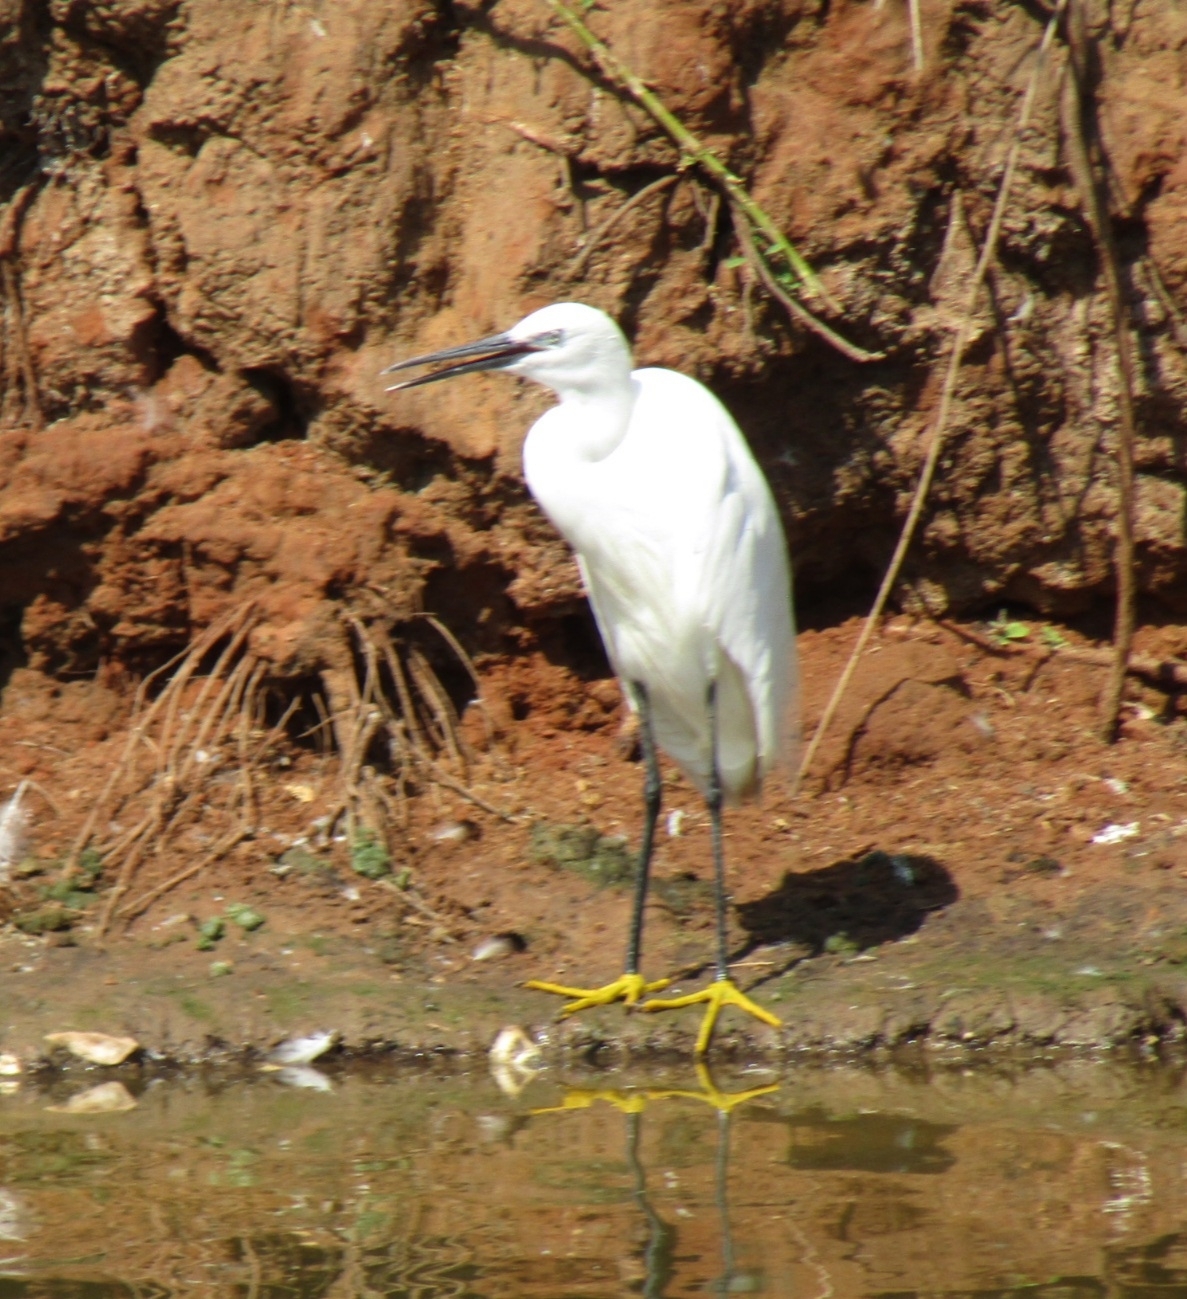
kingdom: Animalia
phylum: Chordata
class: Aves
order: Pelecaniformes
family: Ardeidae
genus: Egretta
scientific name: Egretta garzetta
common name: Little egret
